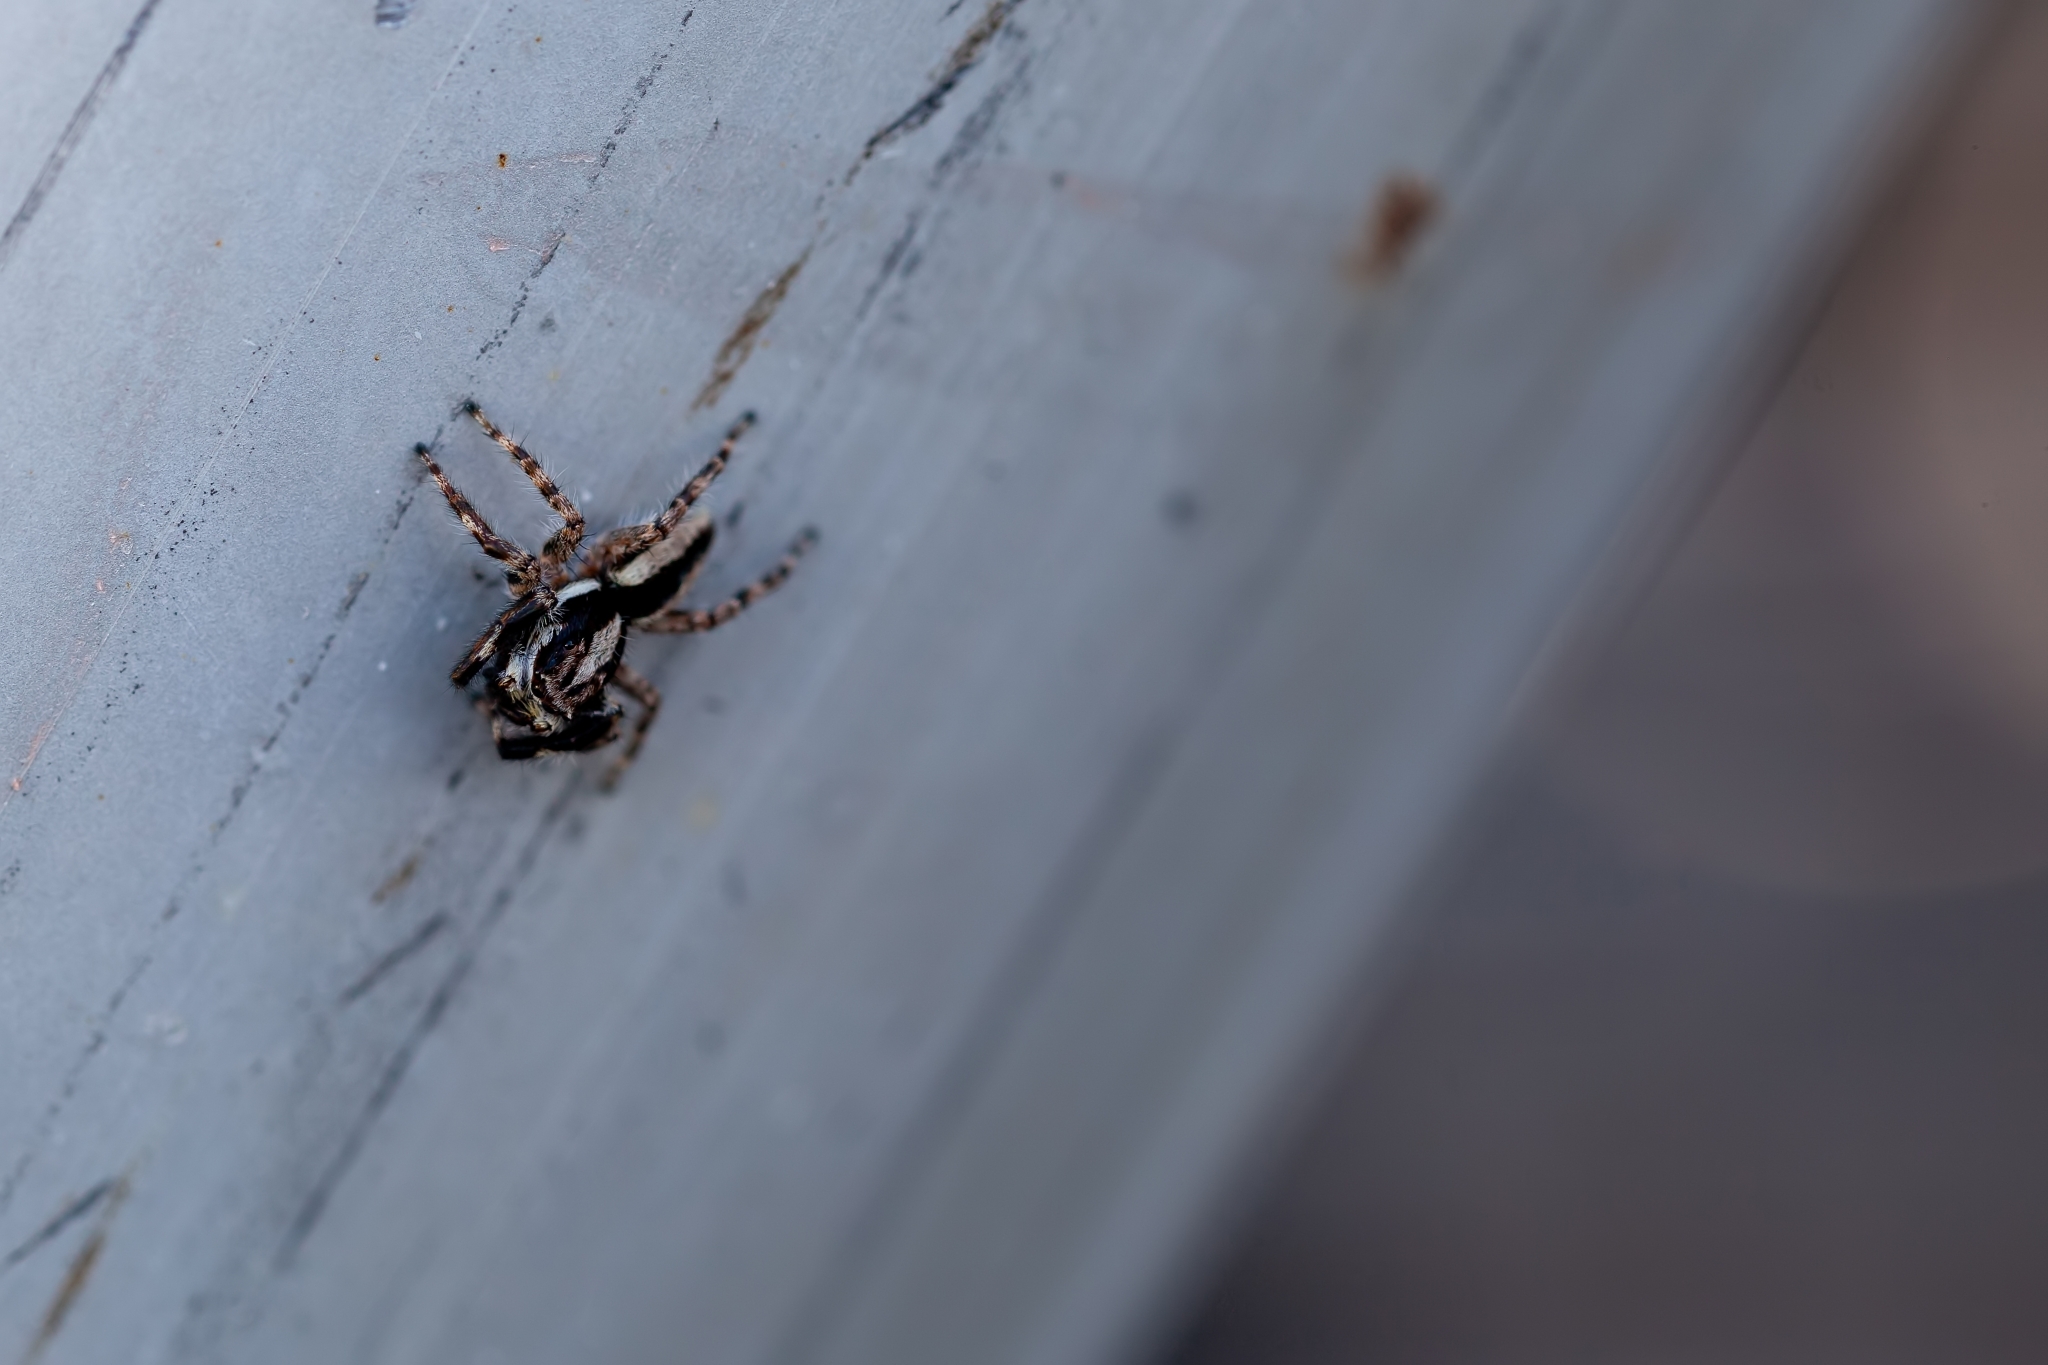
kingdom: Animalia
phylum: Arthropoda
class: Arachnida
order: Araneae
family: Salticidae
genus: Menemerus
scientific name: Menemerus bivittatus
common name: Gray wall jumper
